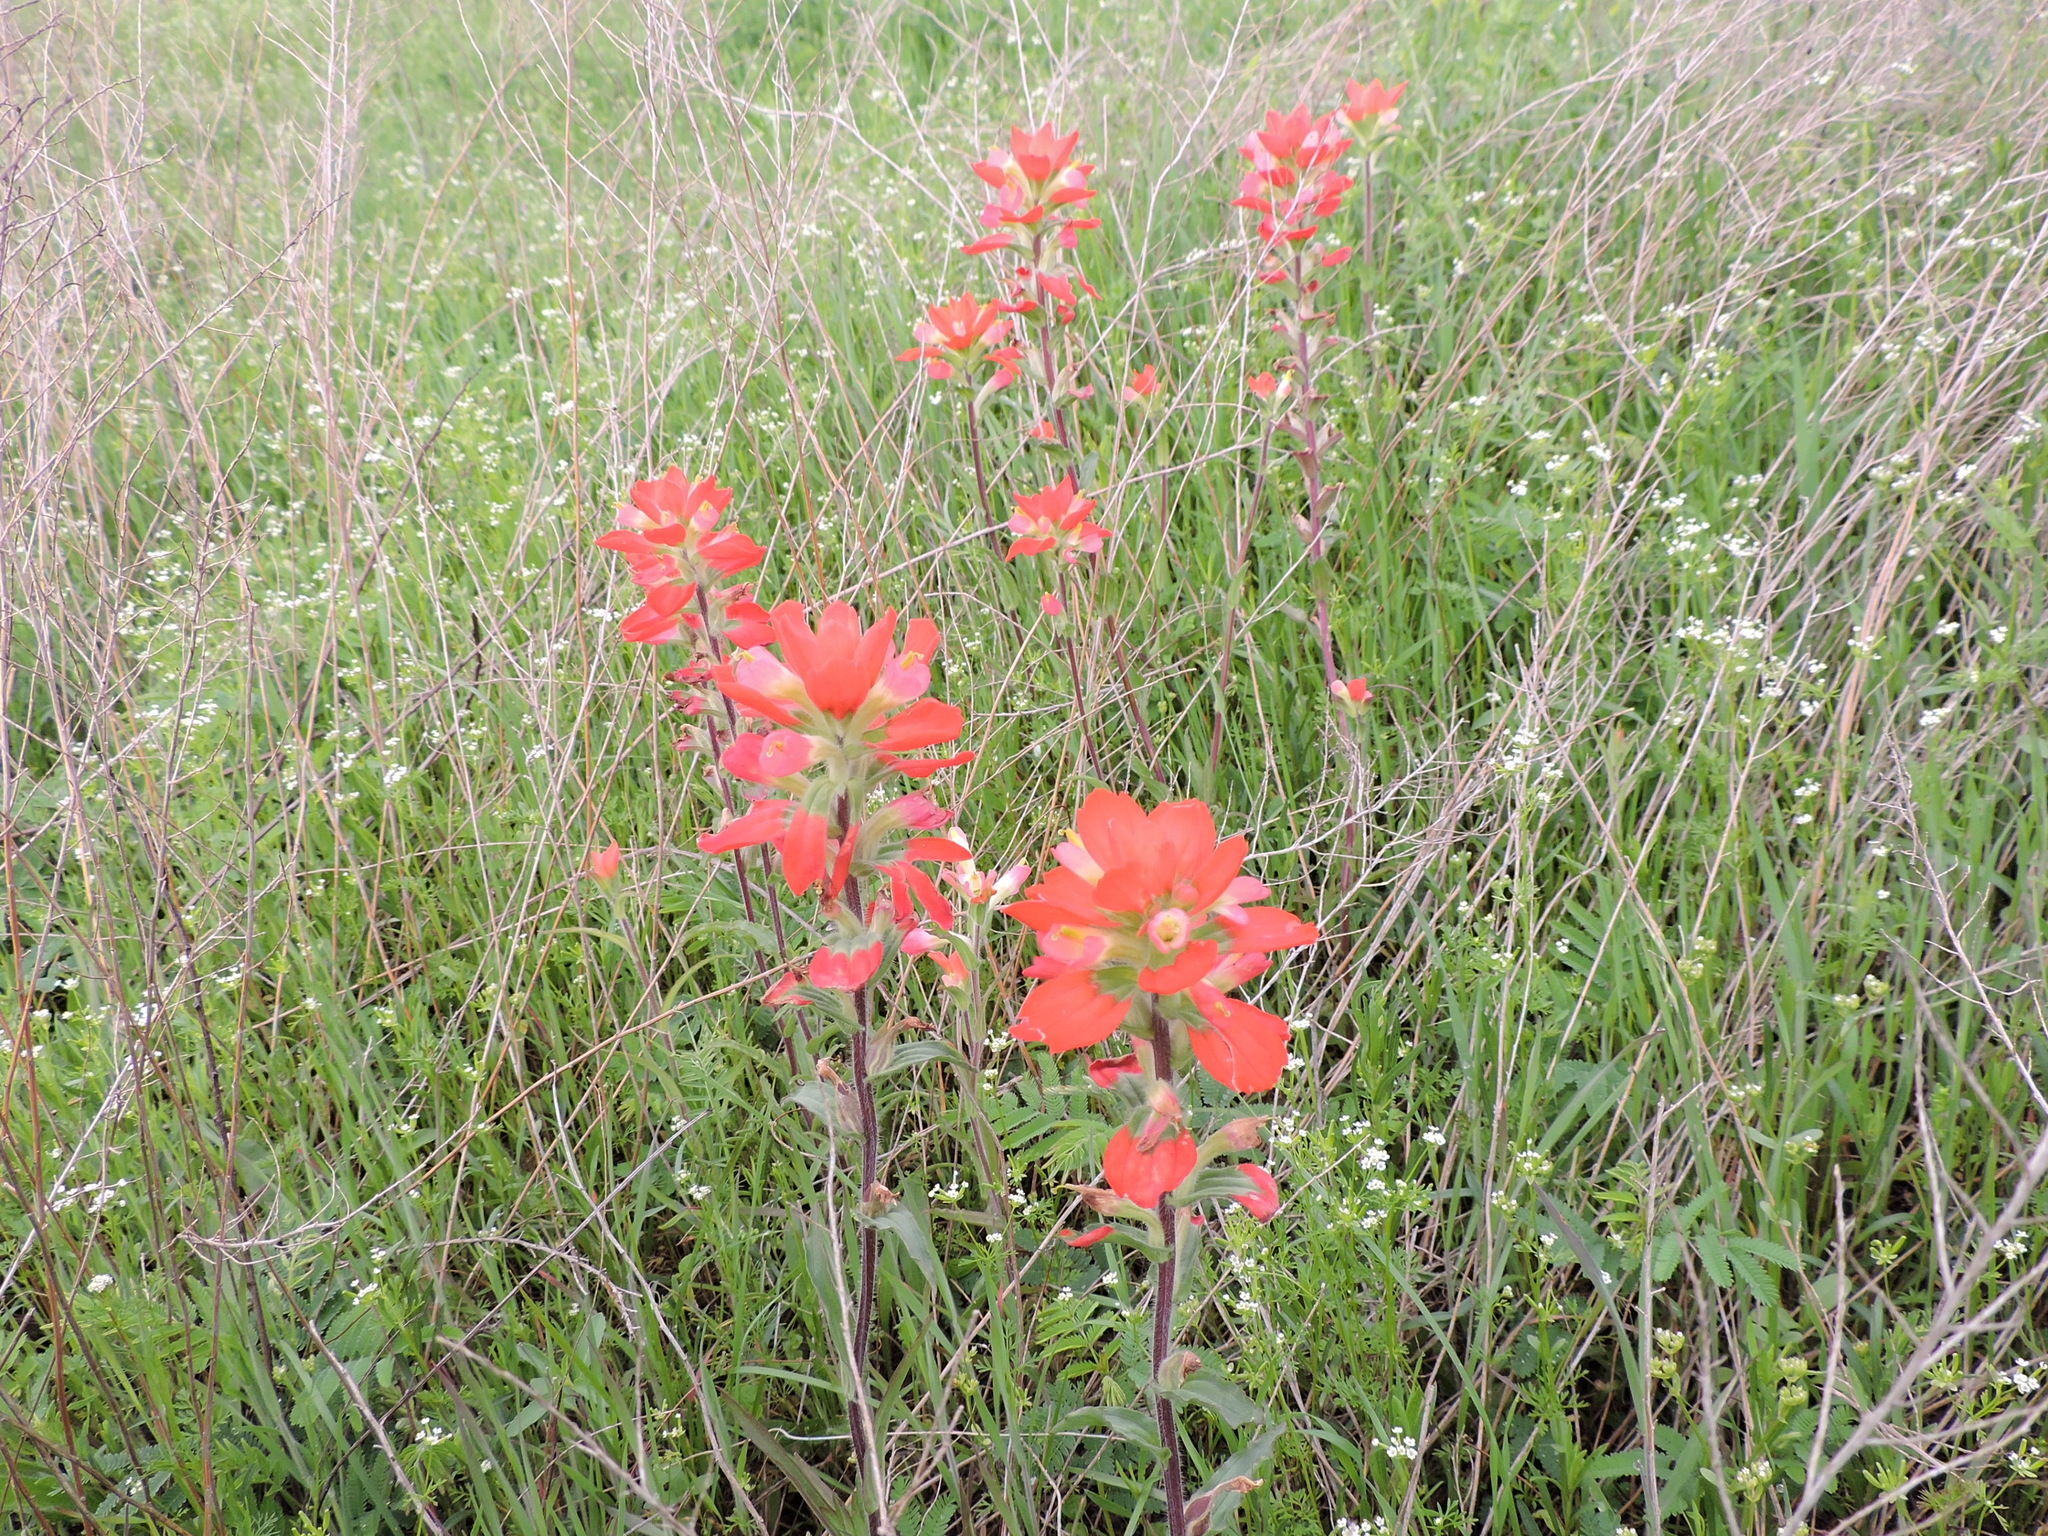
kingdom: Plantae
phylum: Tracheophyta
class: Magnoliopsida
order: Lamiales
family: Orobanchaceae
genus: Castilleja
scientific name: Castilleja indivisa
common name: Texas paintbrush
